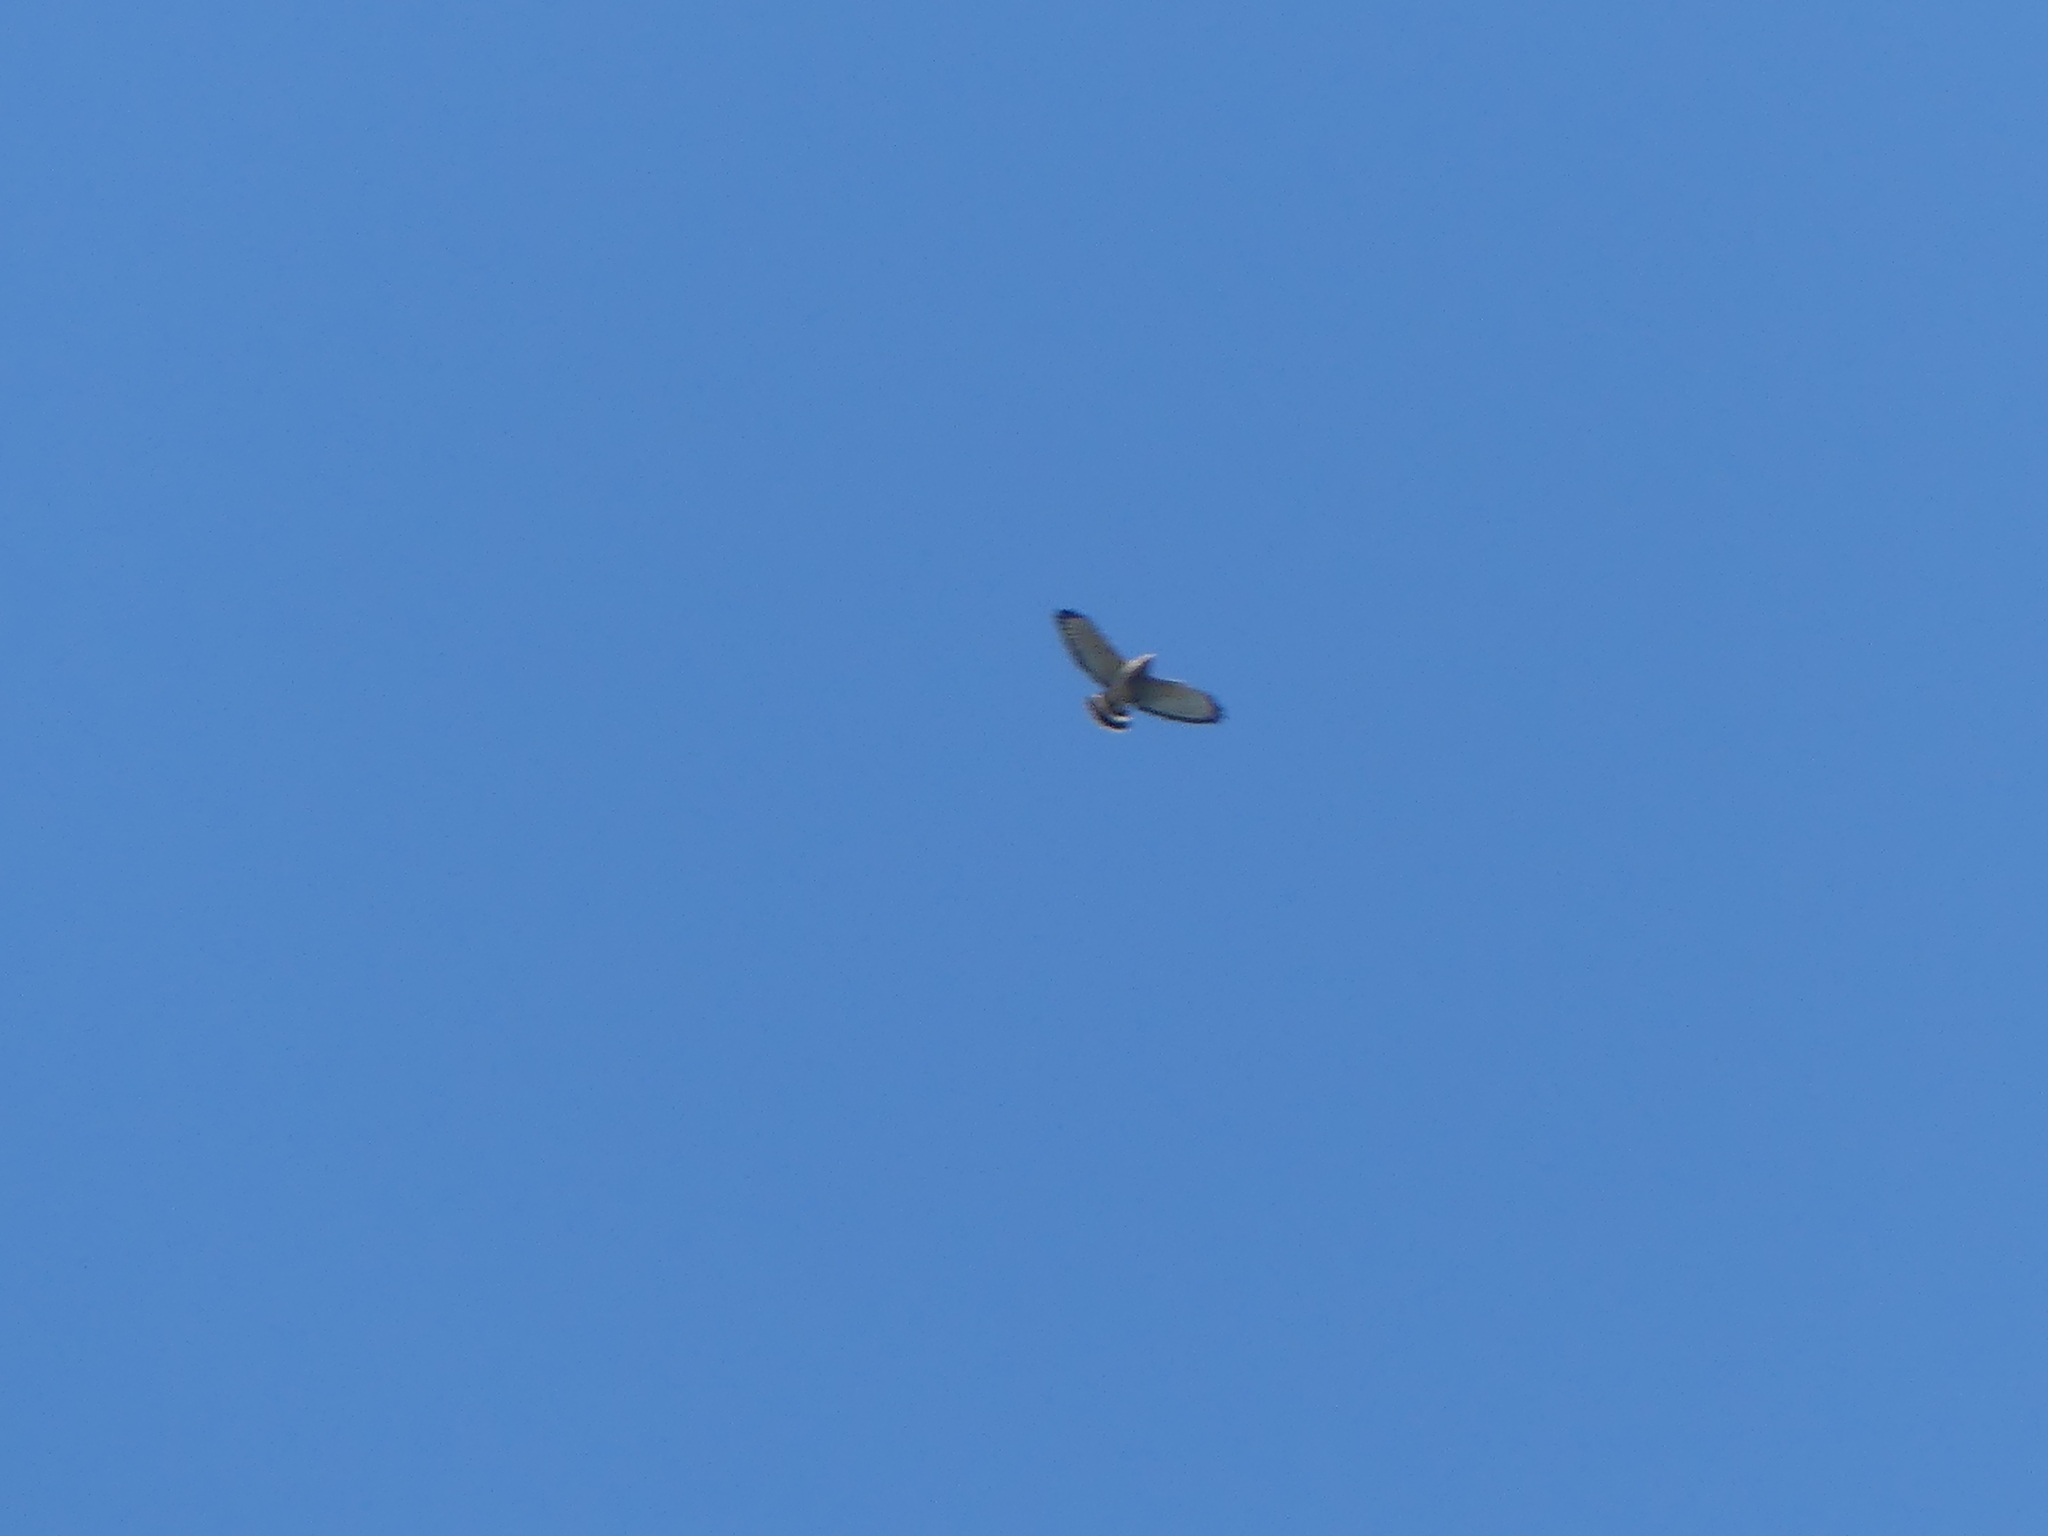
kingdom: Animalia
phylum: Chordata
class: Aves
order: Accipitriformes
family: Accipitridae
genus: Buteo
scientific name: Buteo platypterus
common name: Broad-winged hawk
